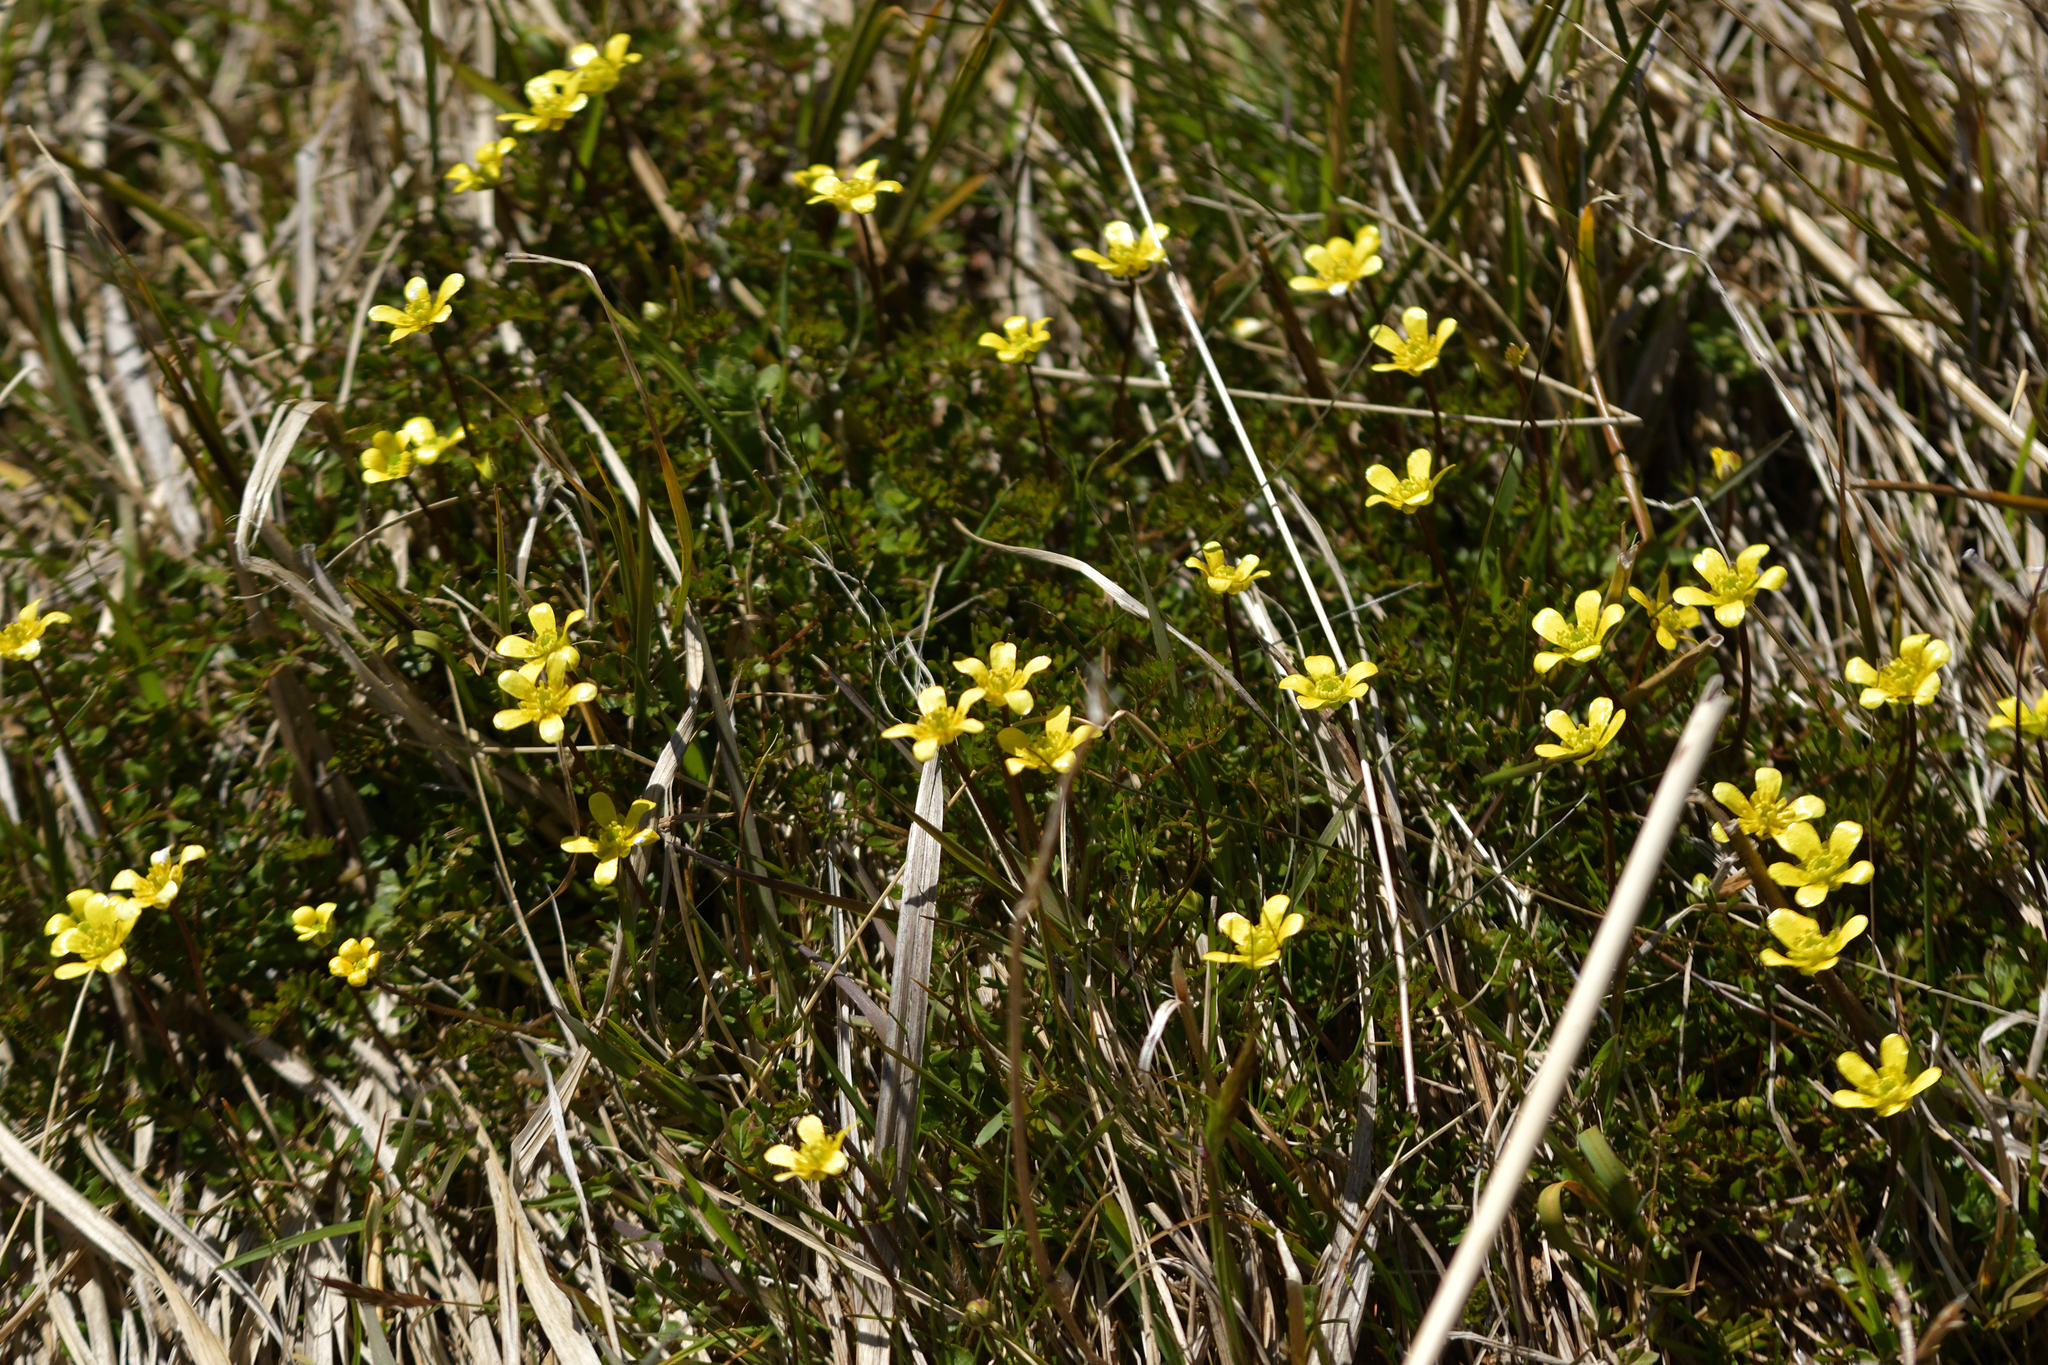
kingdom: Plantae
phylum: Tracheophyta
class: Magnoliopsida
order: Ranunculales
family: Ranunculaceae
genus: Ranunculus
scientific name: Ranunculus gracilipes
